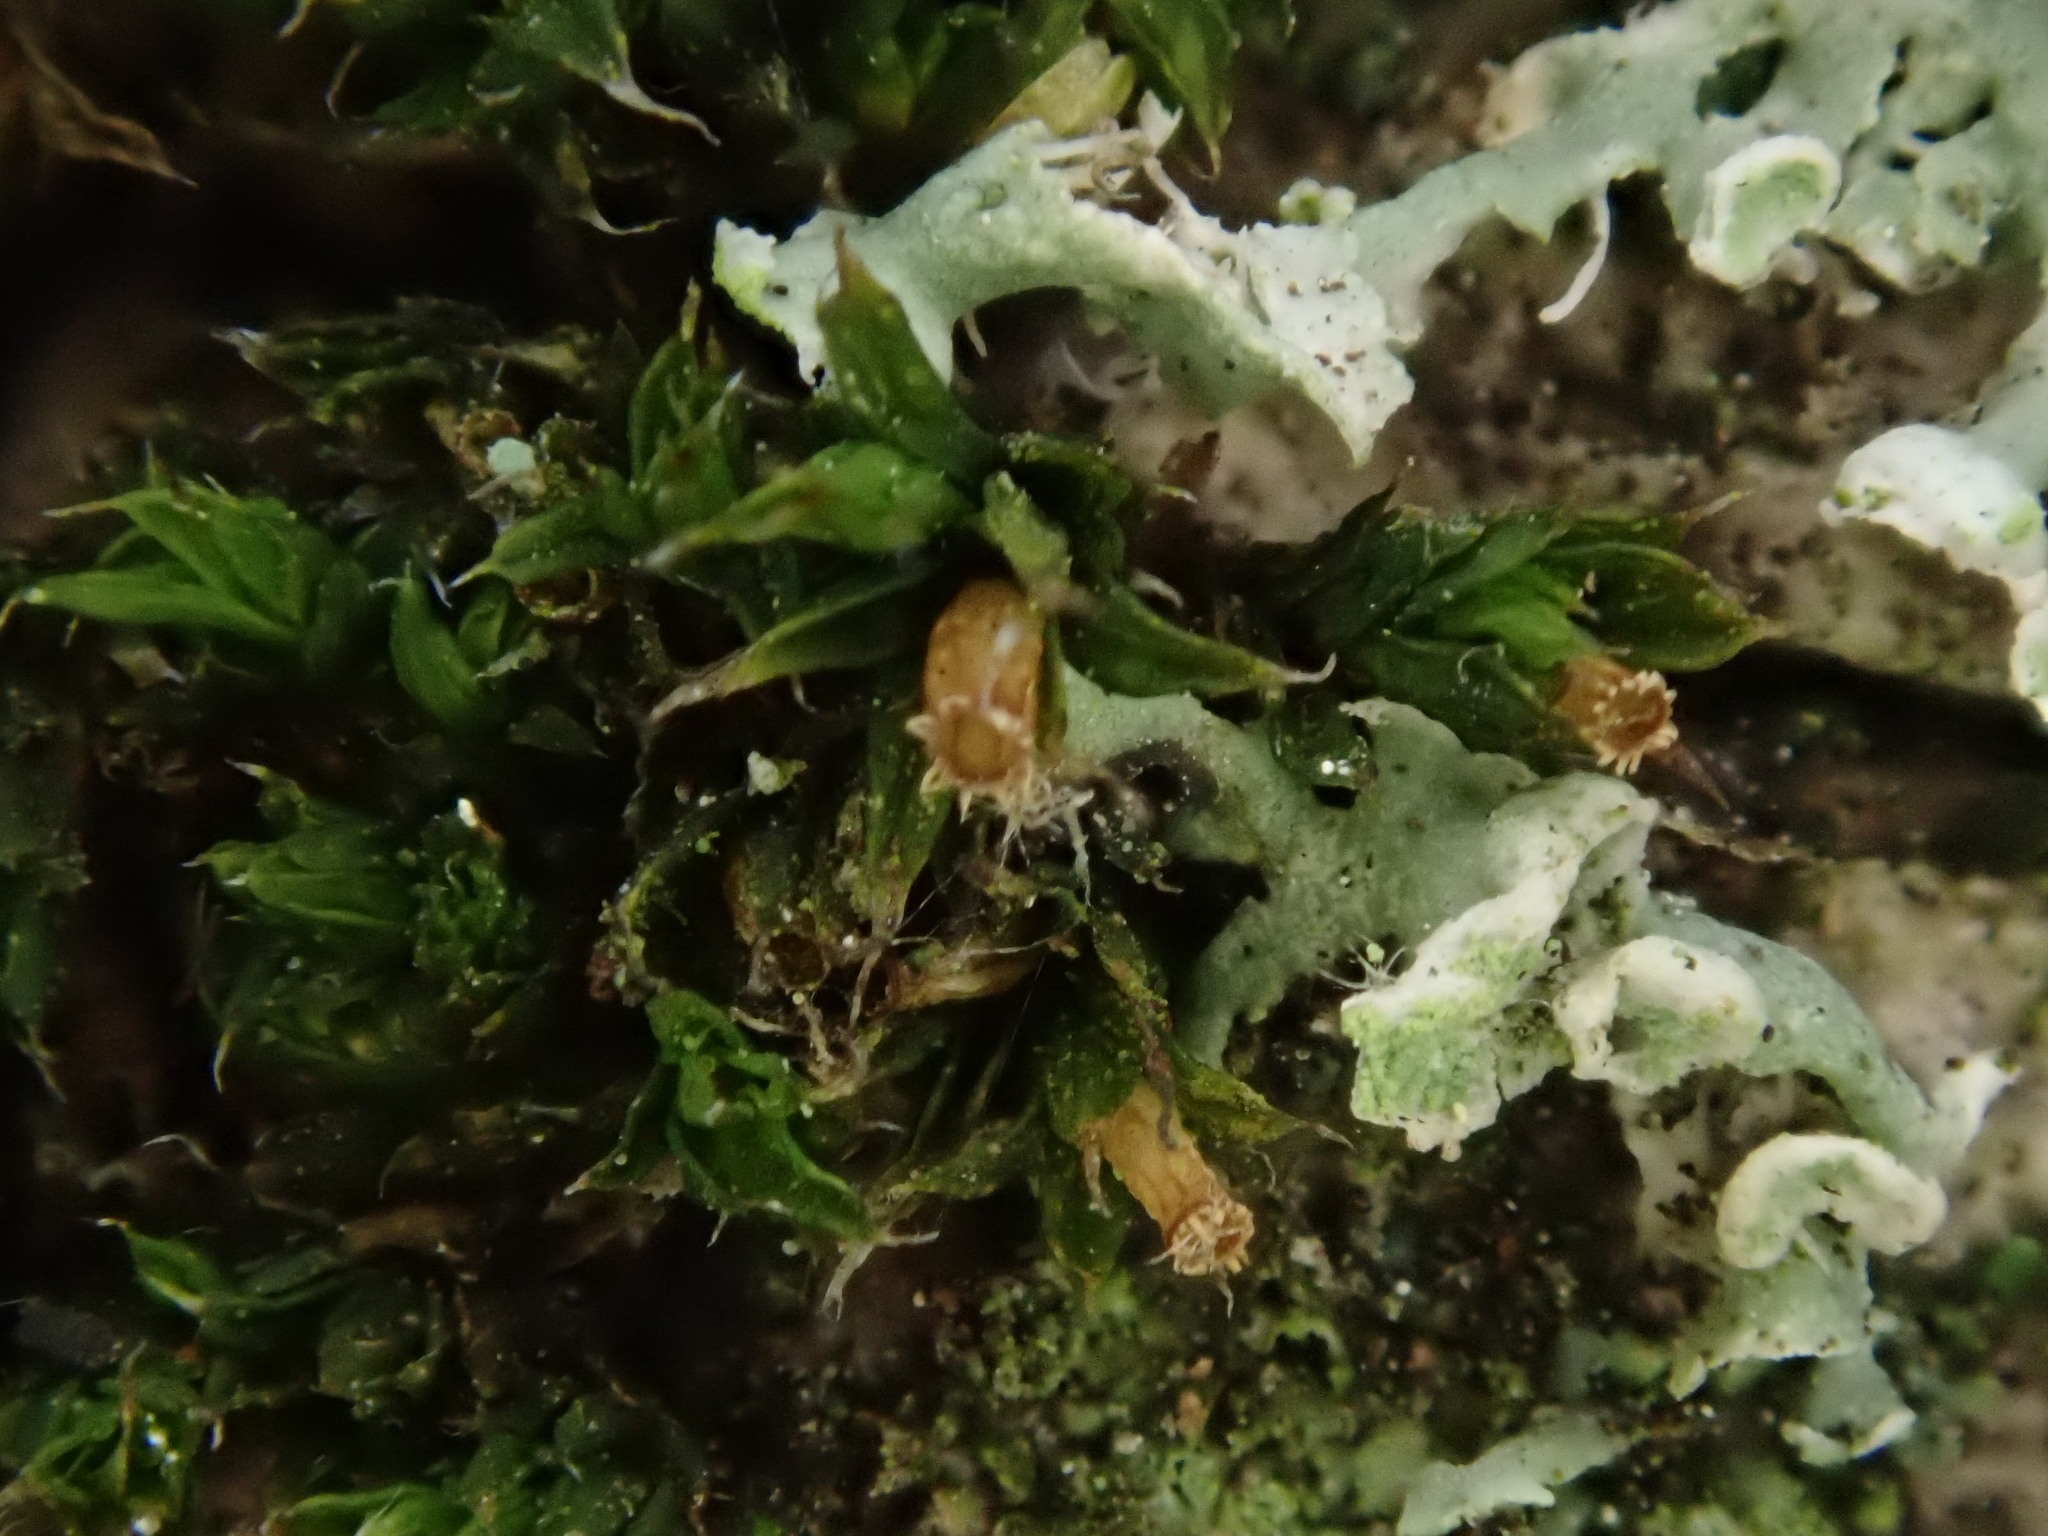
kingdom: Plantae
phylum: Bryophyta
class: Bryopsida
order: Orthotrichales
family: Orthotrichaceae
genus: Orthotrichum
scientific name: Orthotrichum diaphanum
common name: White-tipped bristle-moss
